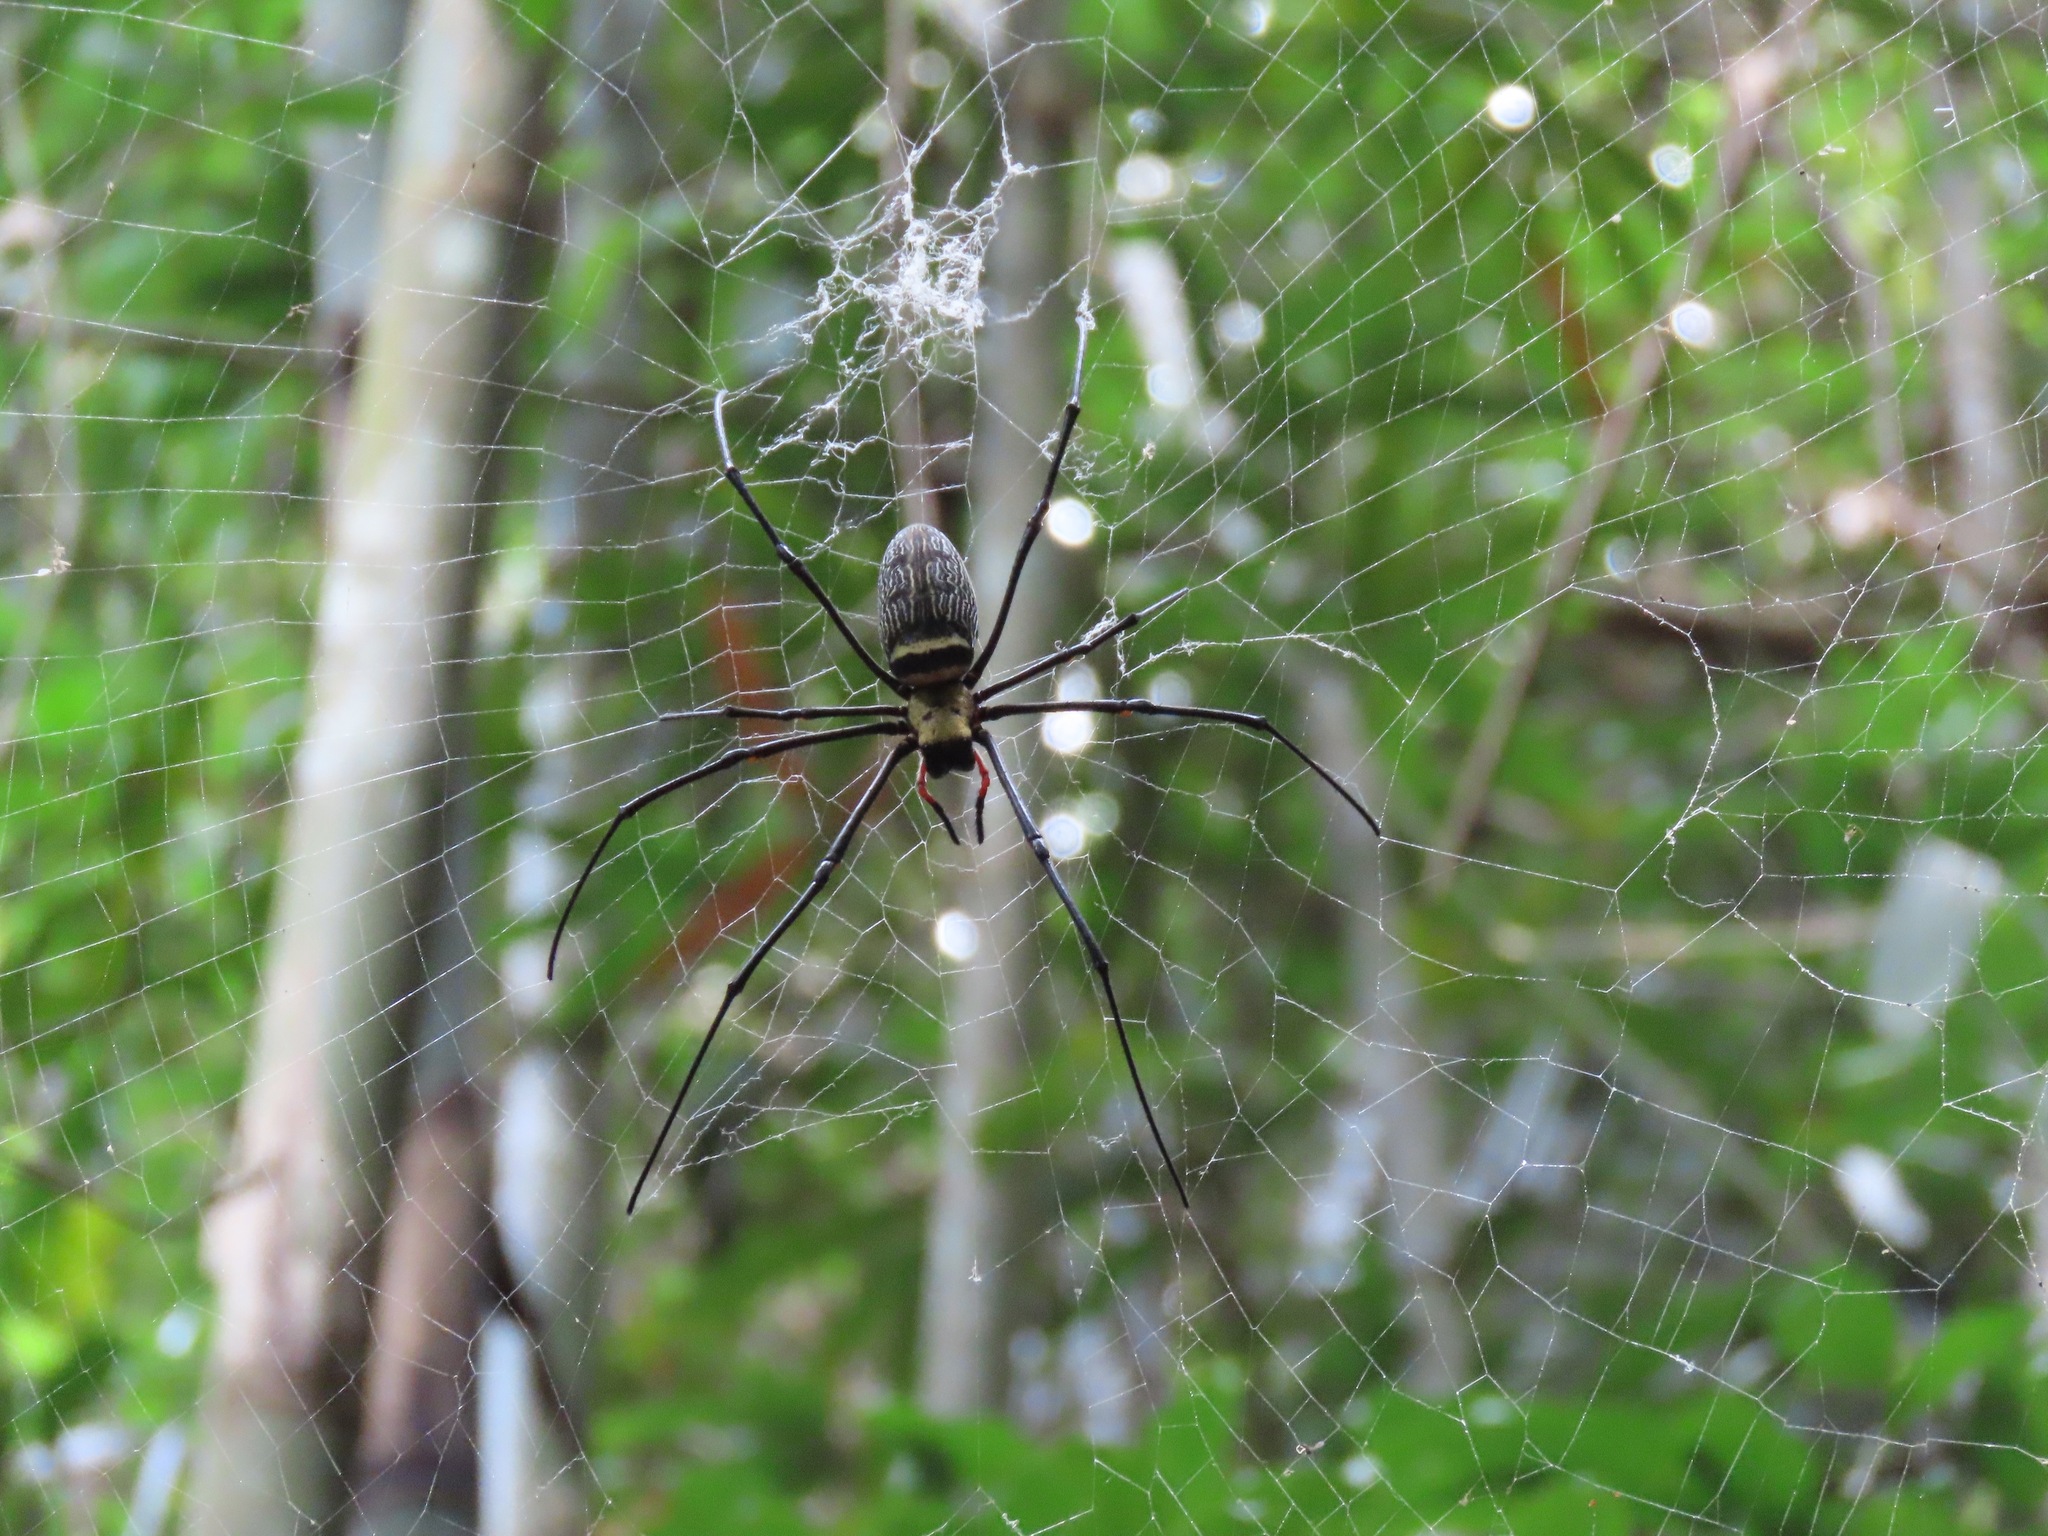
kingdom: Animalia
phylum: Arthropoda
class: Arachnida
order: Araneae
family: Araneidae
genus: Nephila
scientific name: Nephila pilipes
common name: Giant golden orb weaver
